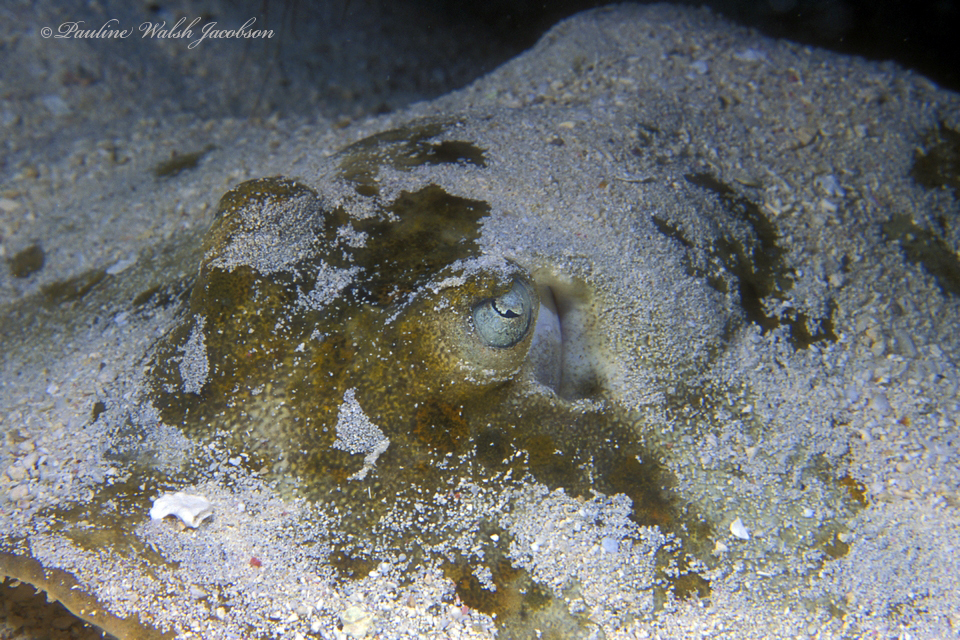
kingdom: Animalia
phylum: Chordata
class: Elasmobranchii
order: Myliobatiformes
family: Urotrygonidae
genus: Urobatis
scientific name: Urobatis jamaicensis
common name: Yellow stingray
